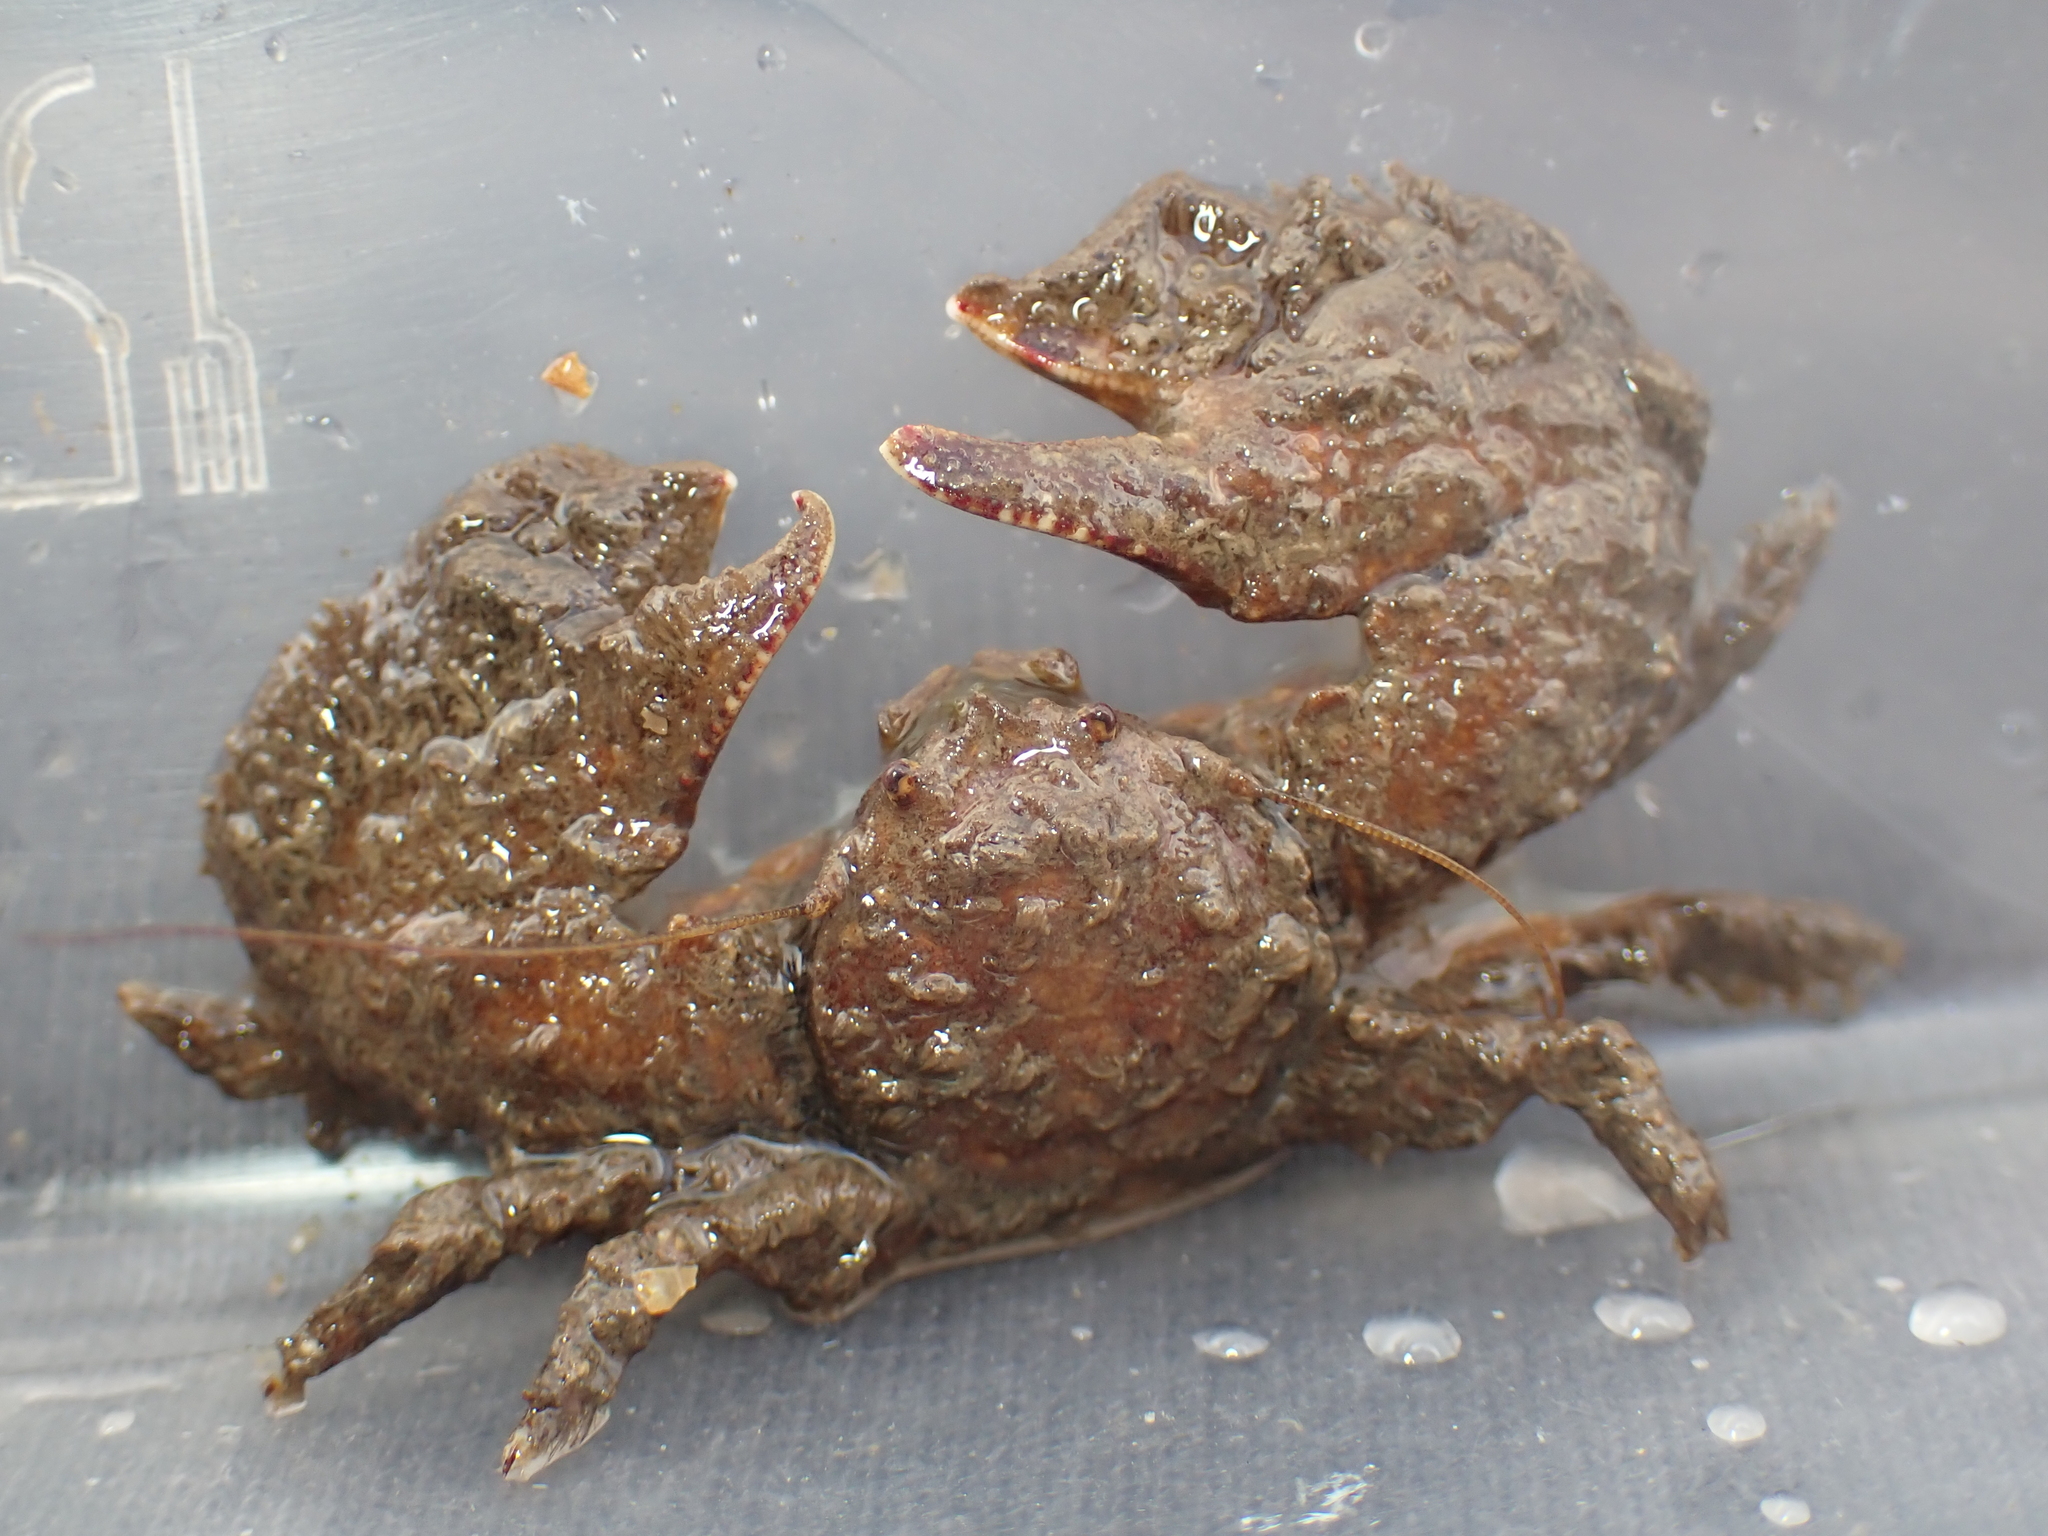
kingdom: Animalia
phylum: Arthropoda
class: Malacostraca
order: Decapoda
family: Porcellanidae
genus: Porcellana
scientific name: Porcellana platycheles
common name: Porcelain crab
